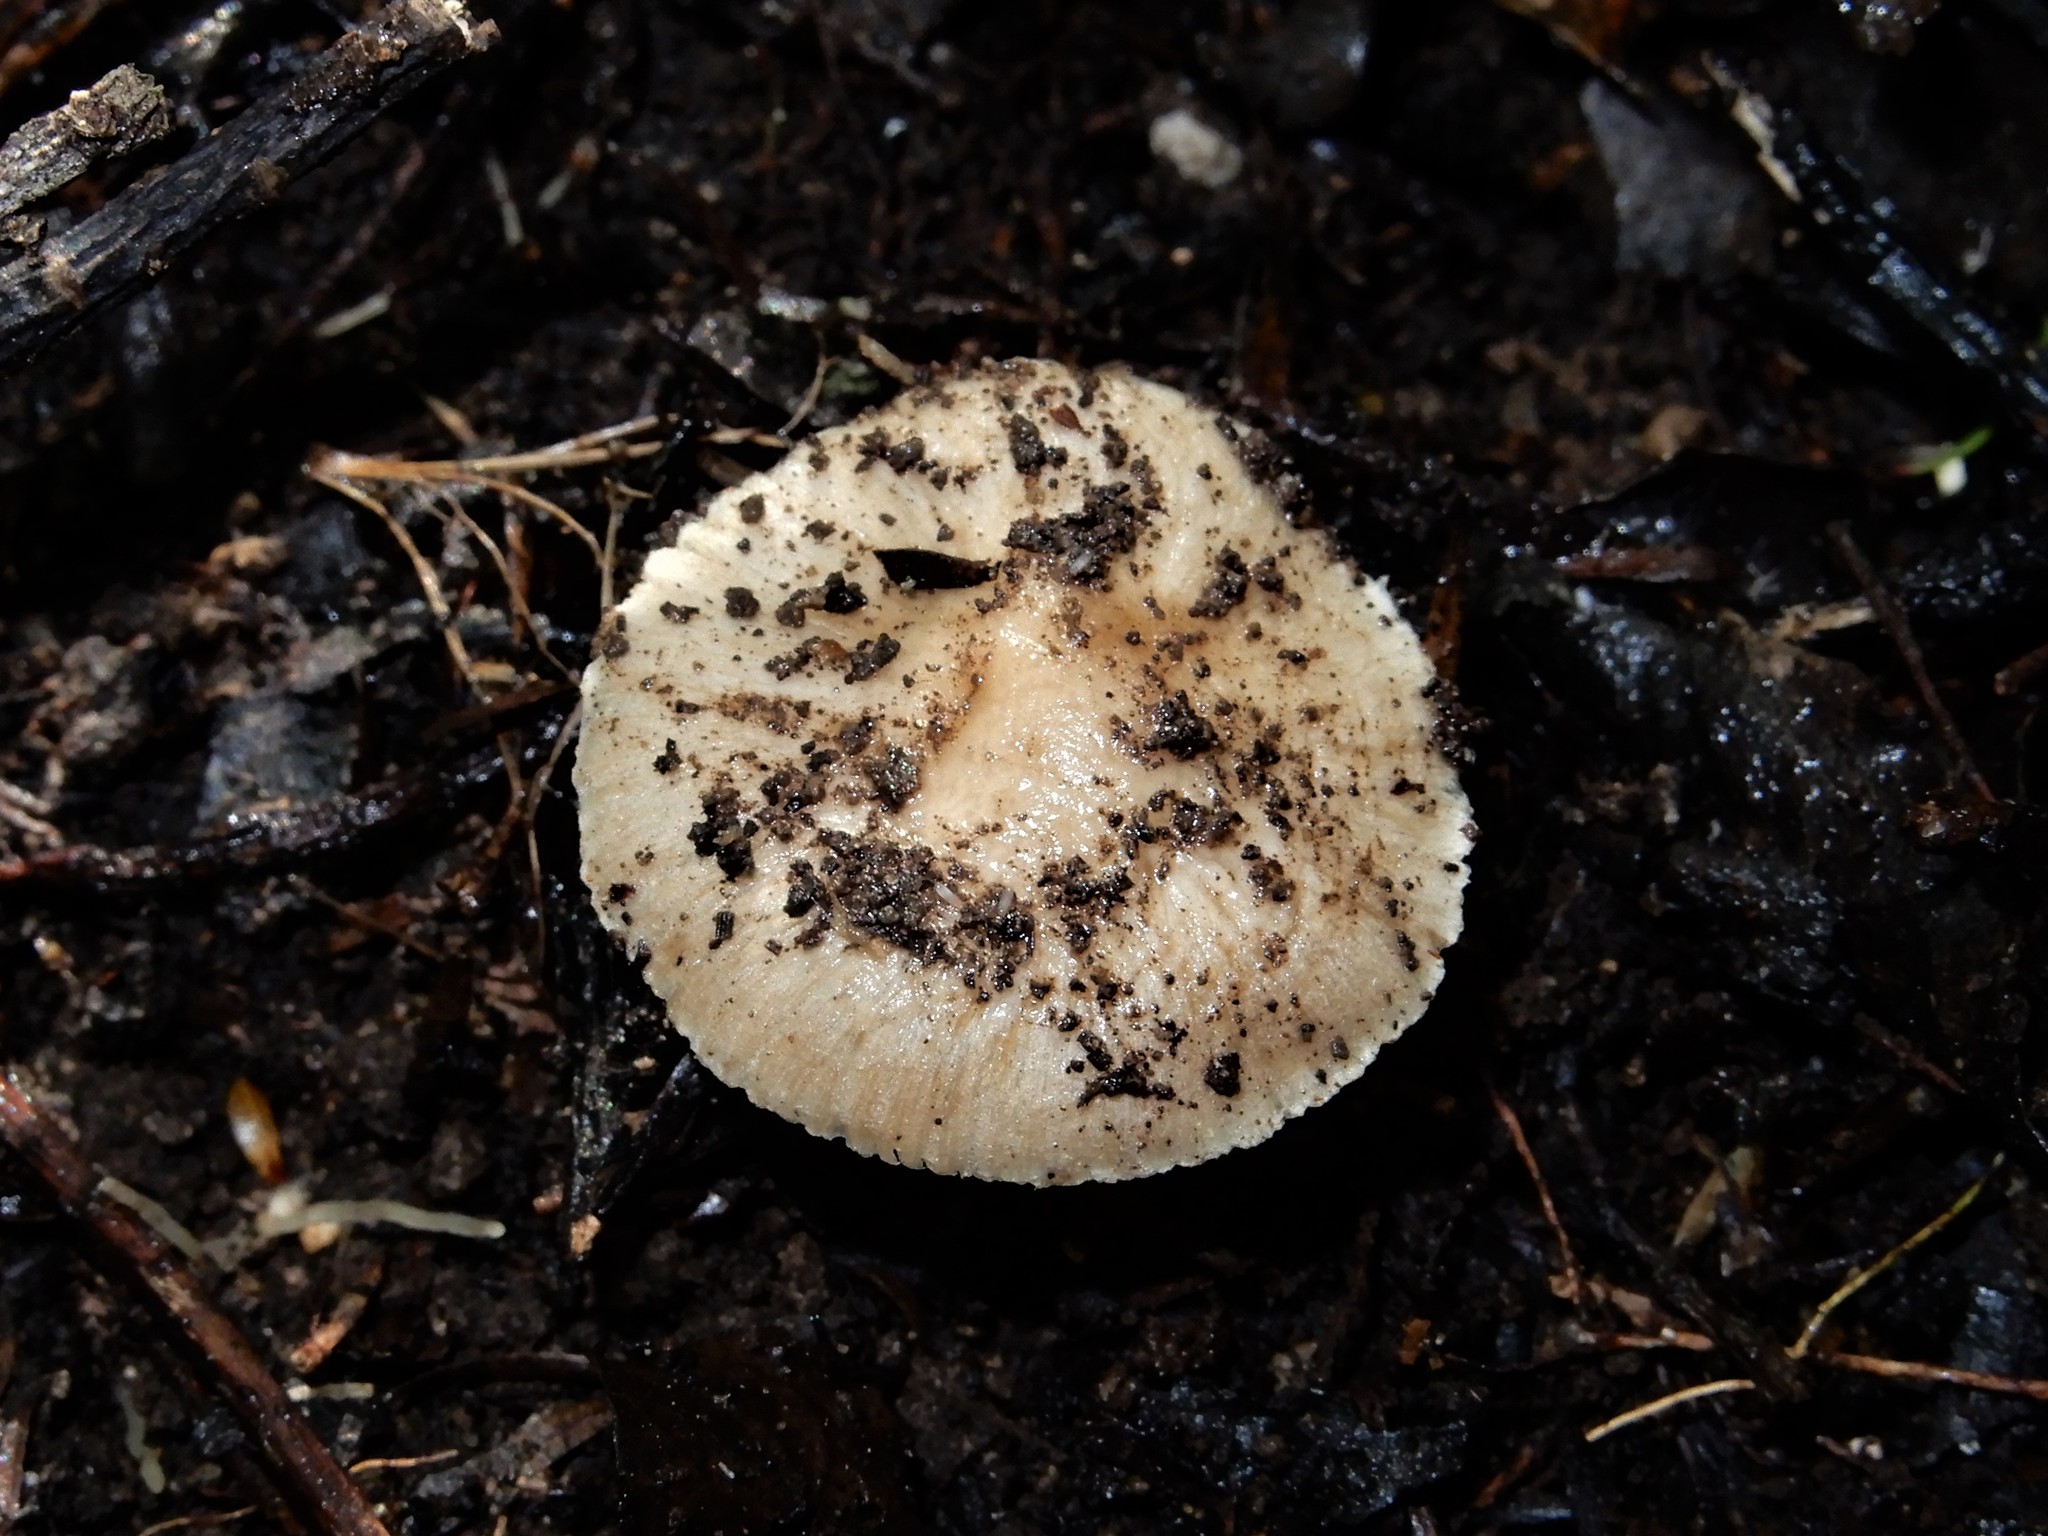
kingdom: Fungi
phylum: Basidiomycota
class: Agaricomycetes
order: Agaricales
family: Inocybaceae
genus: Inocybe
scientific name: Inocybe
